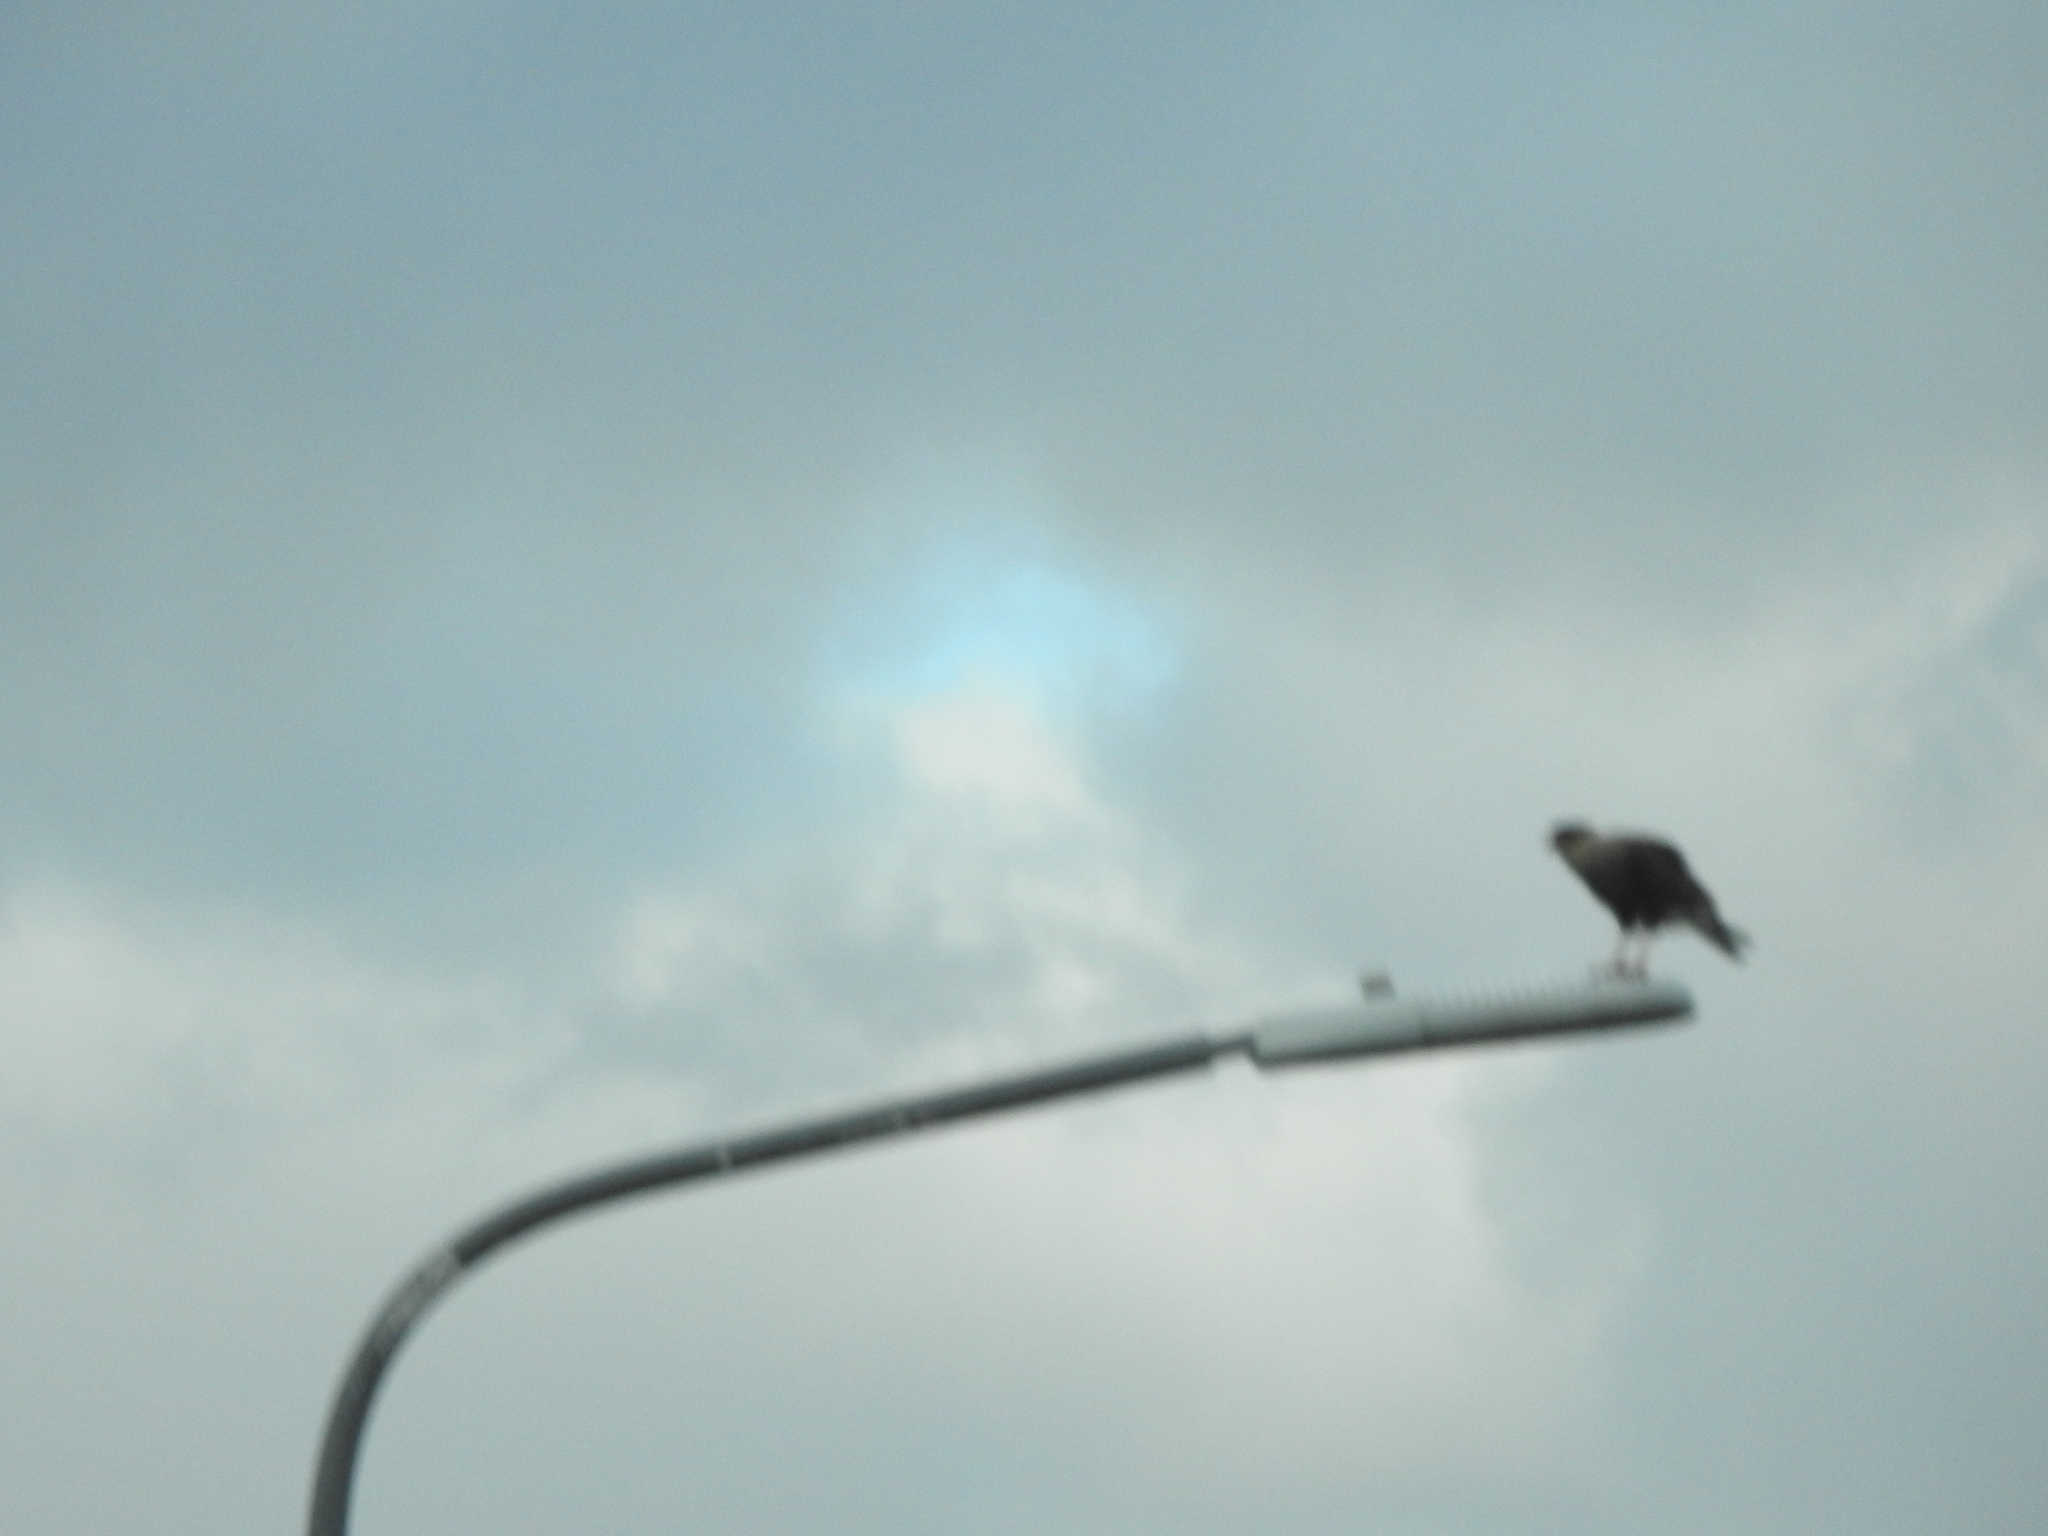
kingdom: Animalia
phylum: Chordata
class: Aves
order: Falconiformes
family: Falconidae
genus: Caracara
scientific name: Caracara plancus
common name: Southern caracara
